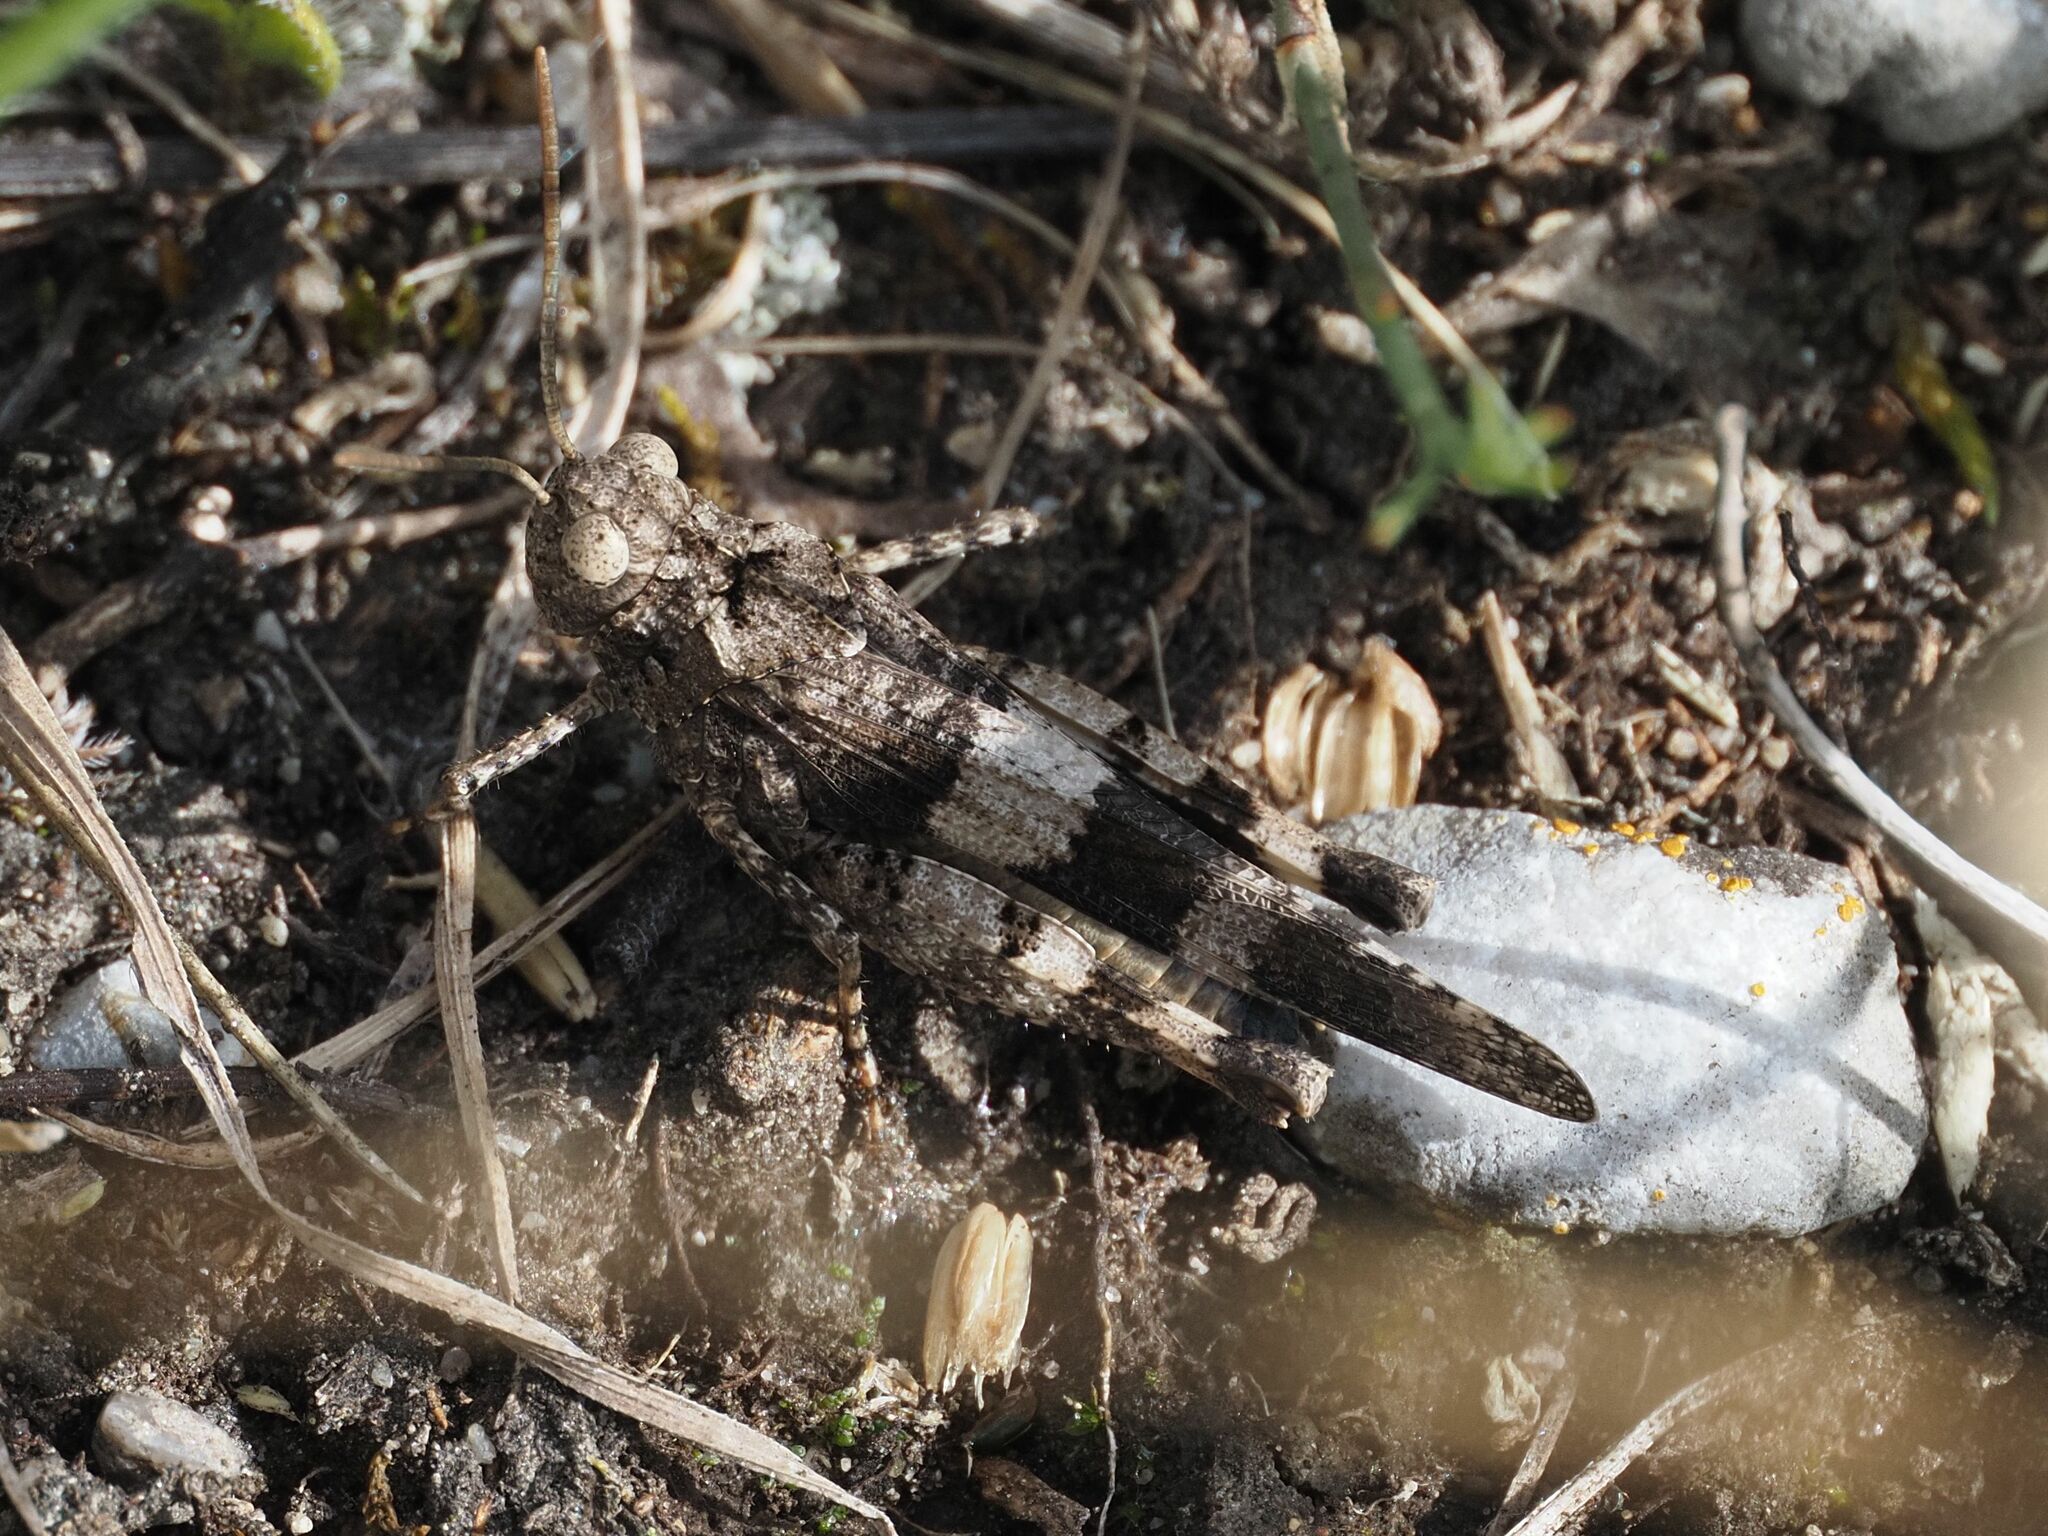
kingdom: Animalia
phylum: Arthropoda
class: Insecta
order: Orthoptera
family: Acrididae
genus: Oedipoda
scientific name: Oedipoda caerulescens
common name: Blue-winged grasshopper
